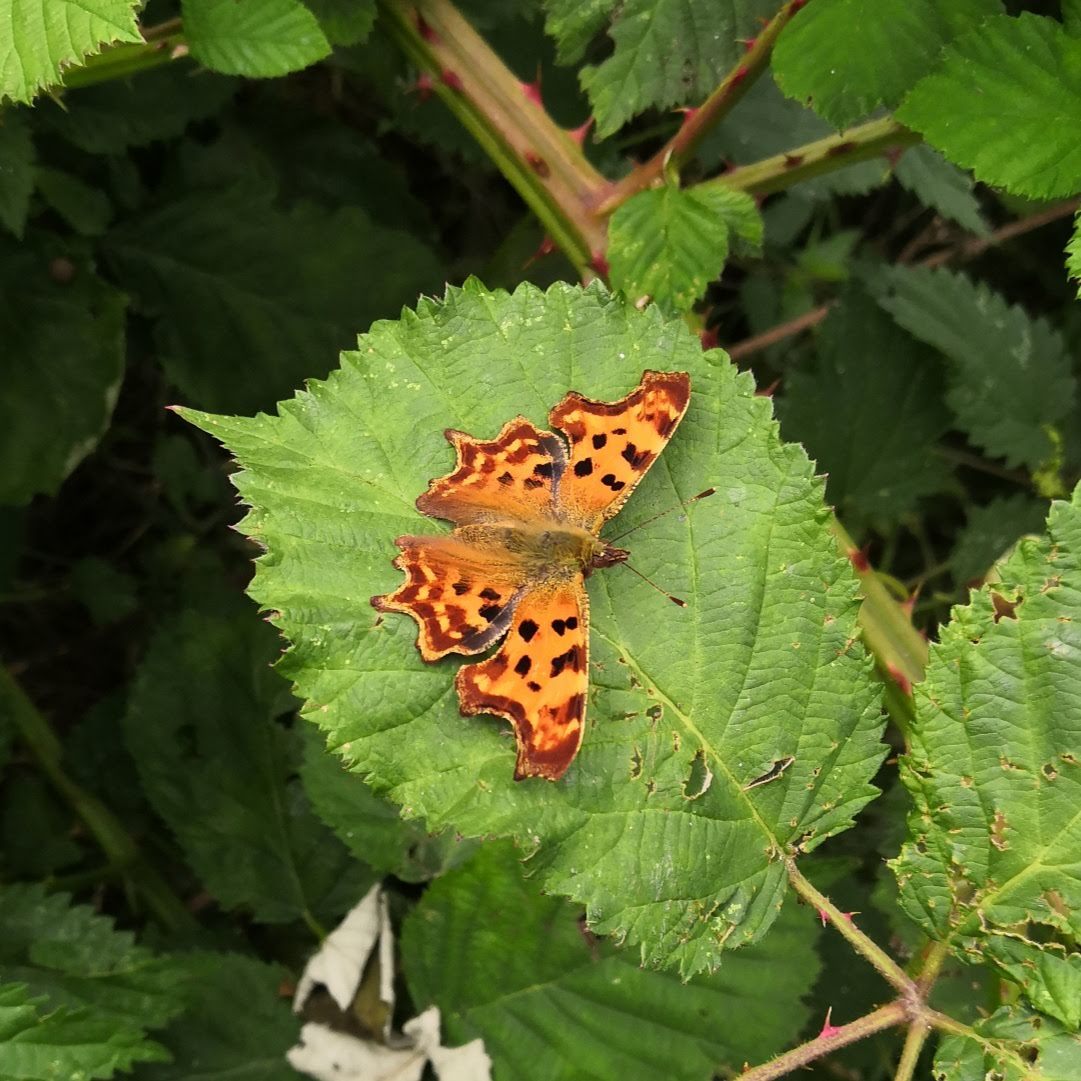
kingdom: Animalia
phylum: Arthropoda
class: Insecta
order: Lepidoptera
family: Nymphalidae
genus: Polygonia
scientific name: Polygonia c-album
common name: Comma
